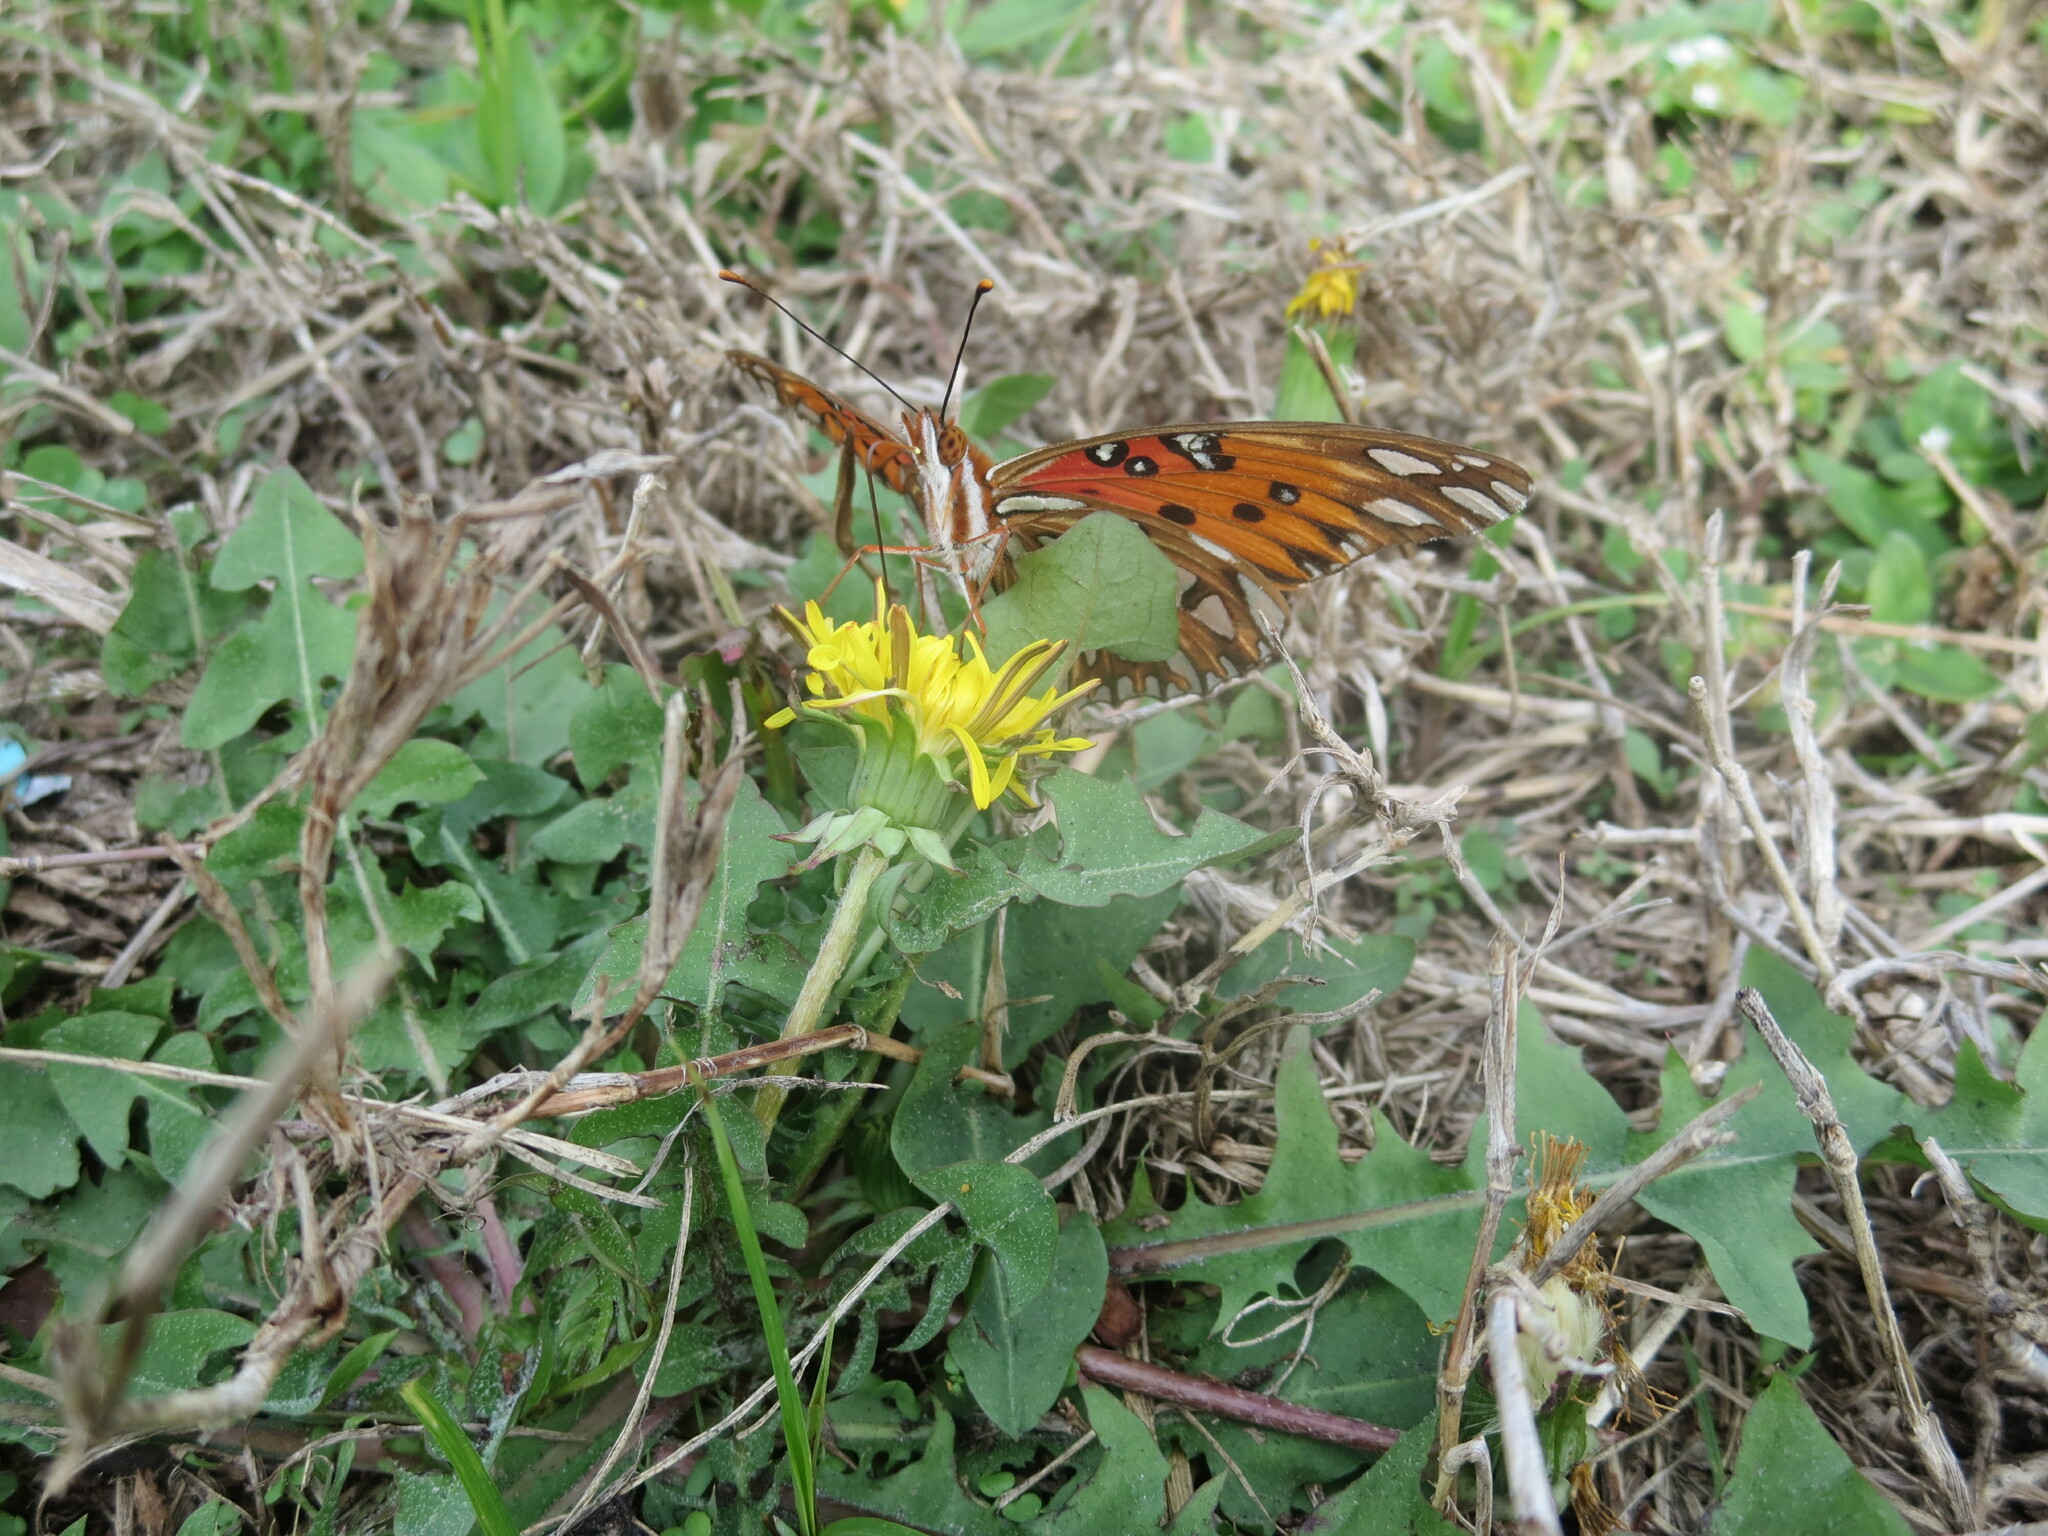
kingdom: Animalia
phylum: Arthropoda
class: Insecta
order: Lepidoptera
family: Nymphalidae
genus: Dione
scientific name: Dione vanillae
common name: Gulf fritillary
